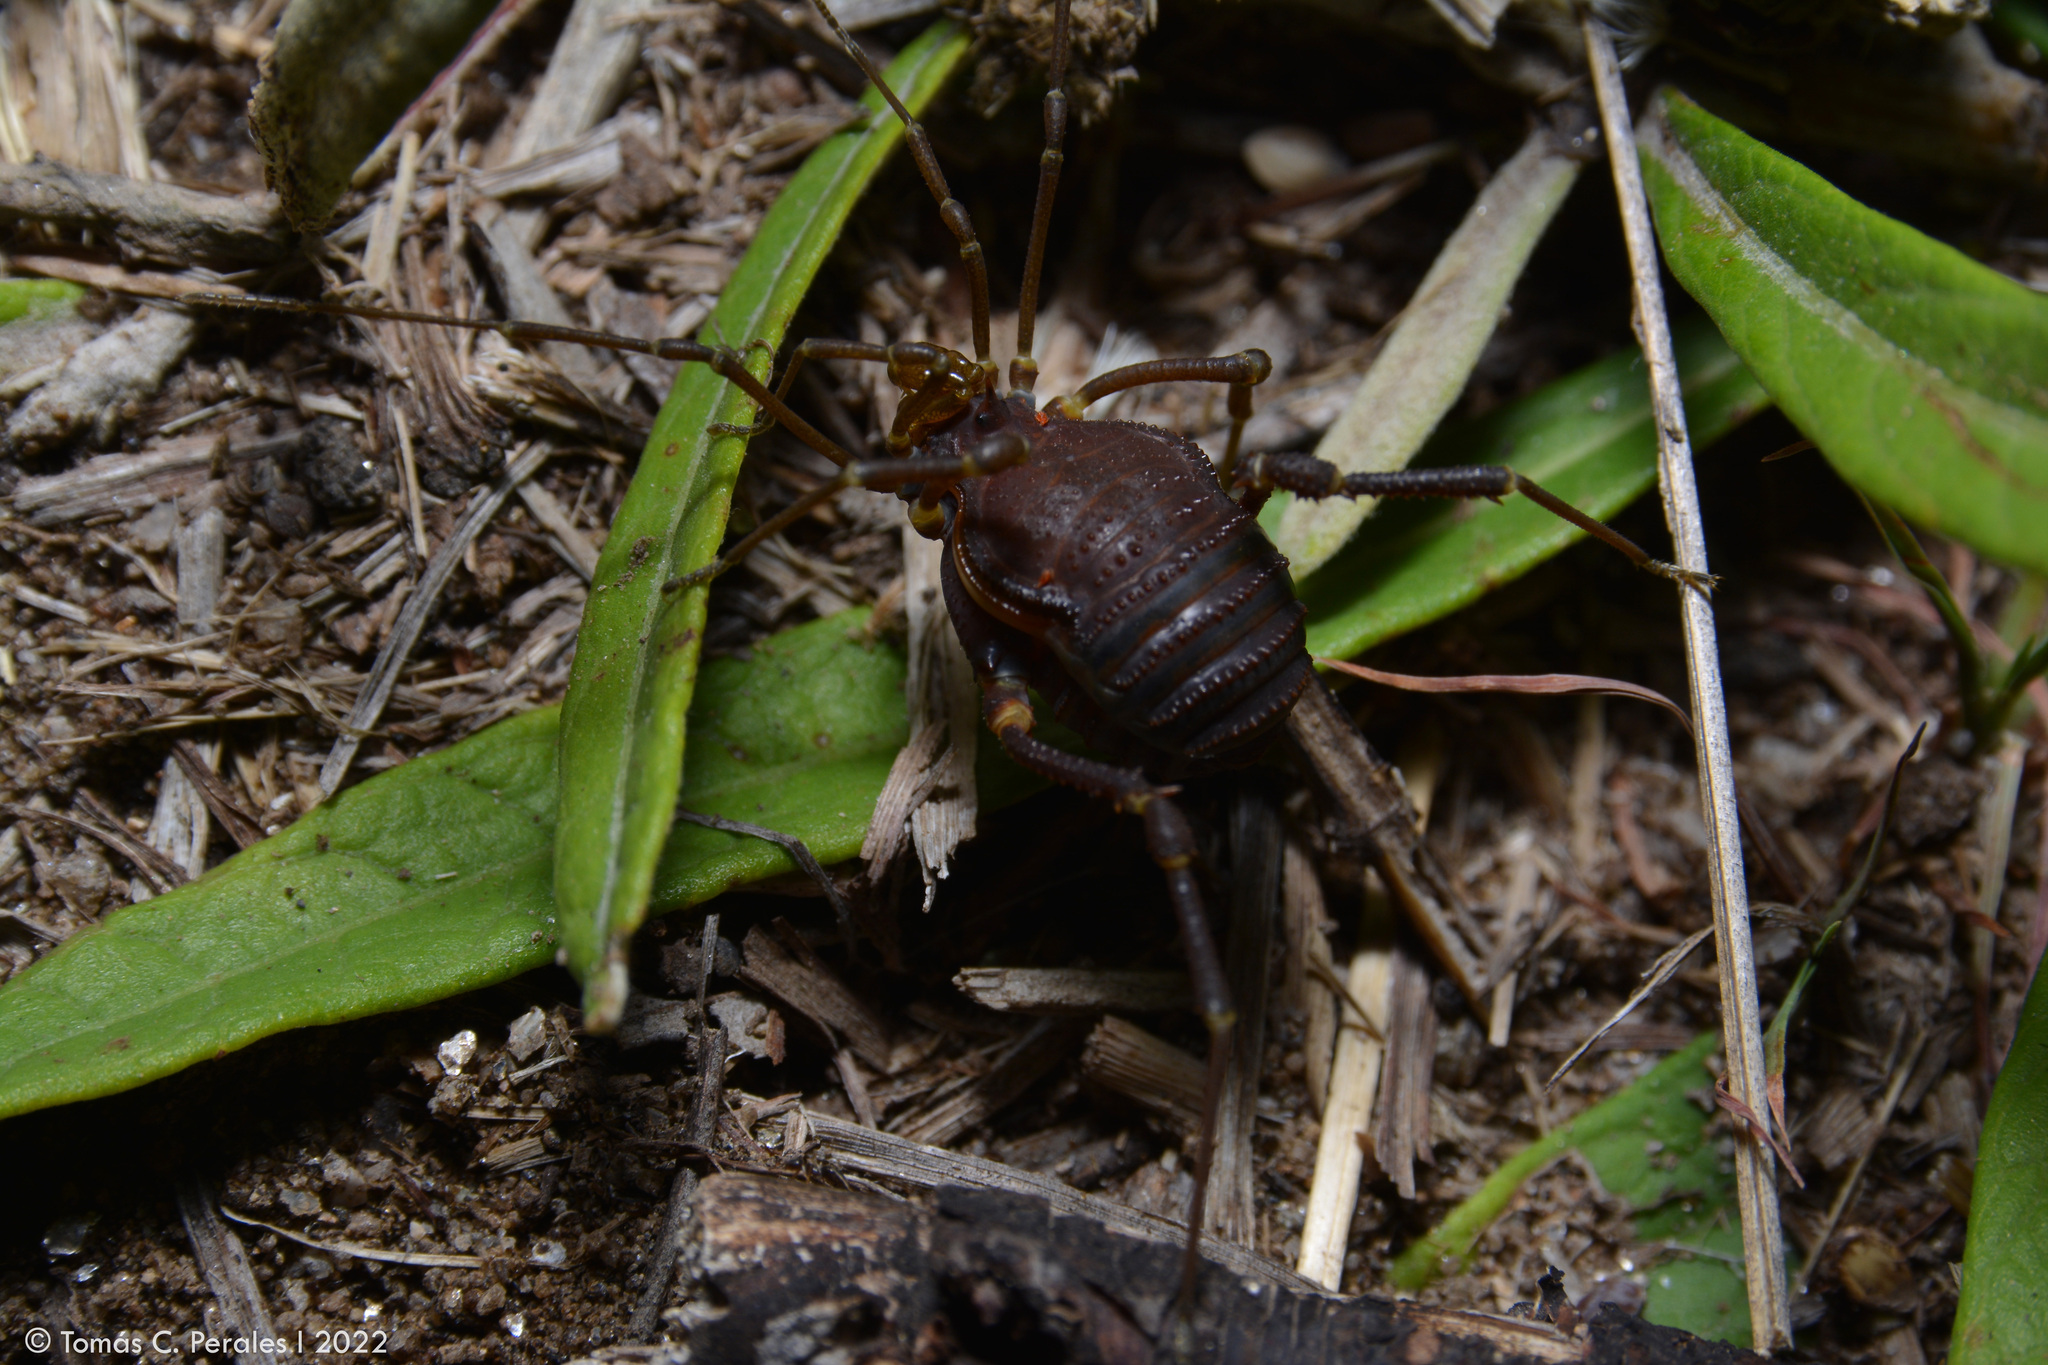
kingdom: Animalia
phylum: Arthropoda
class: Arachnida
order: Opiliones
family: Gonyleptidae
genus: Pachyloidellus
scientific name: Pachyloidellus butleri
